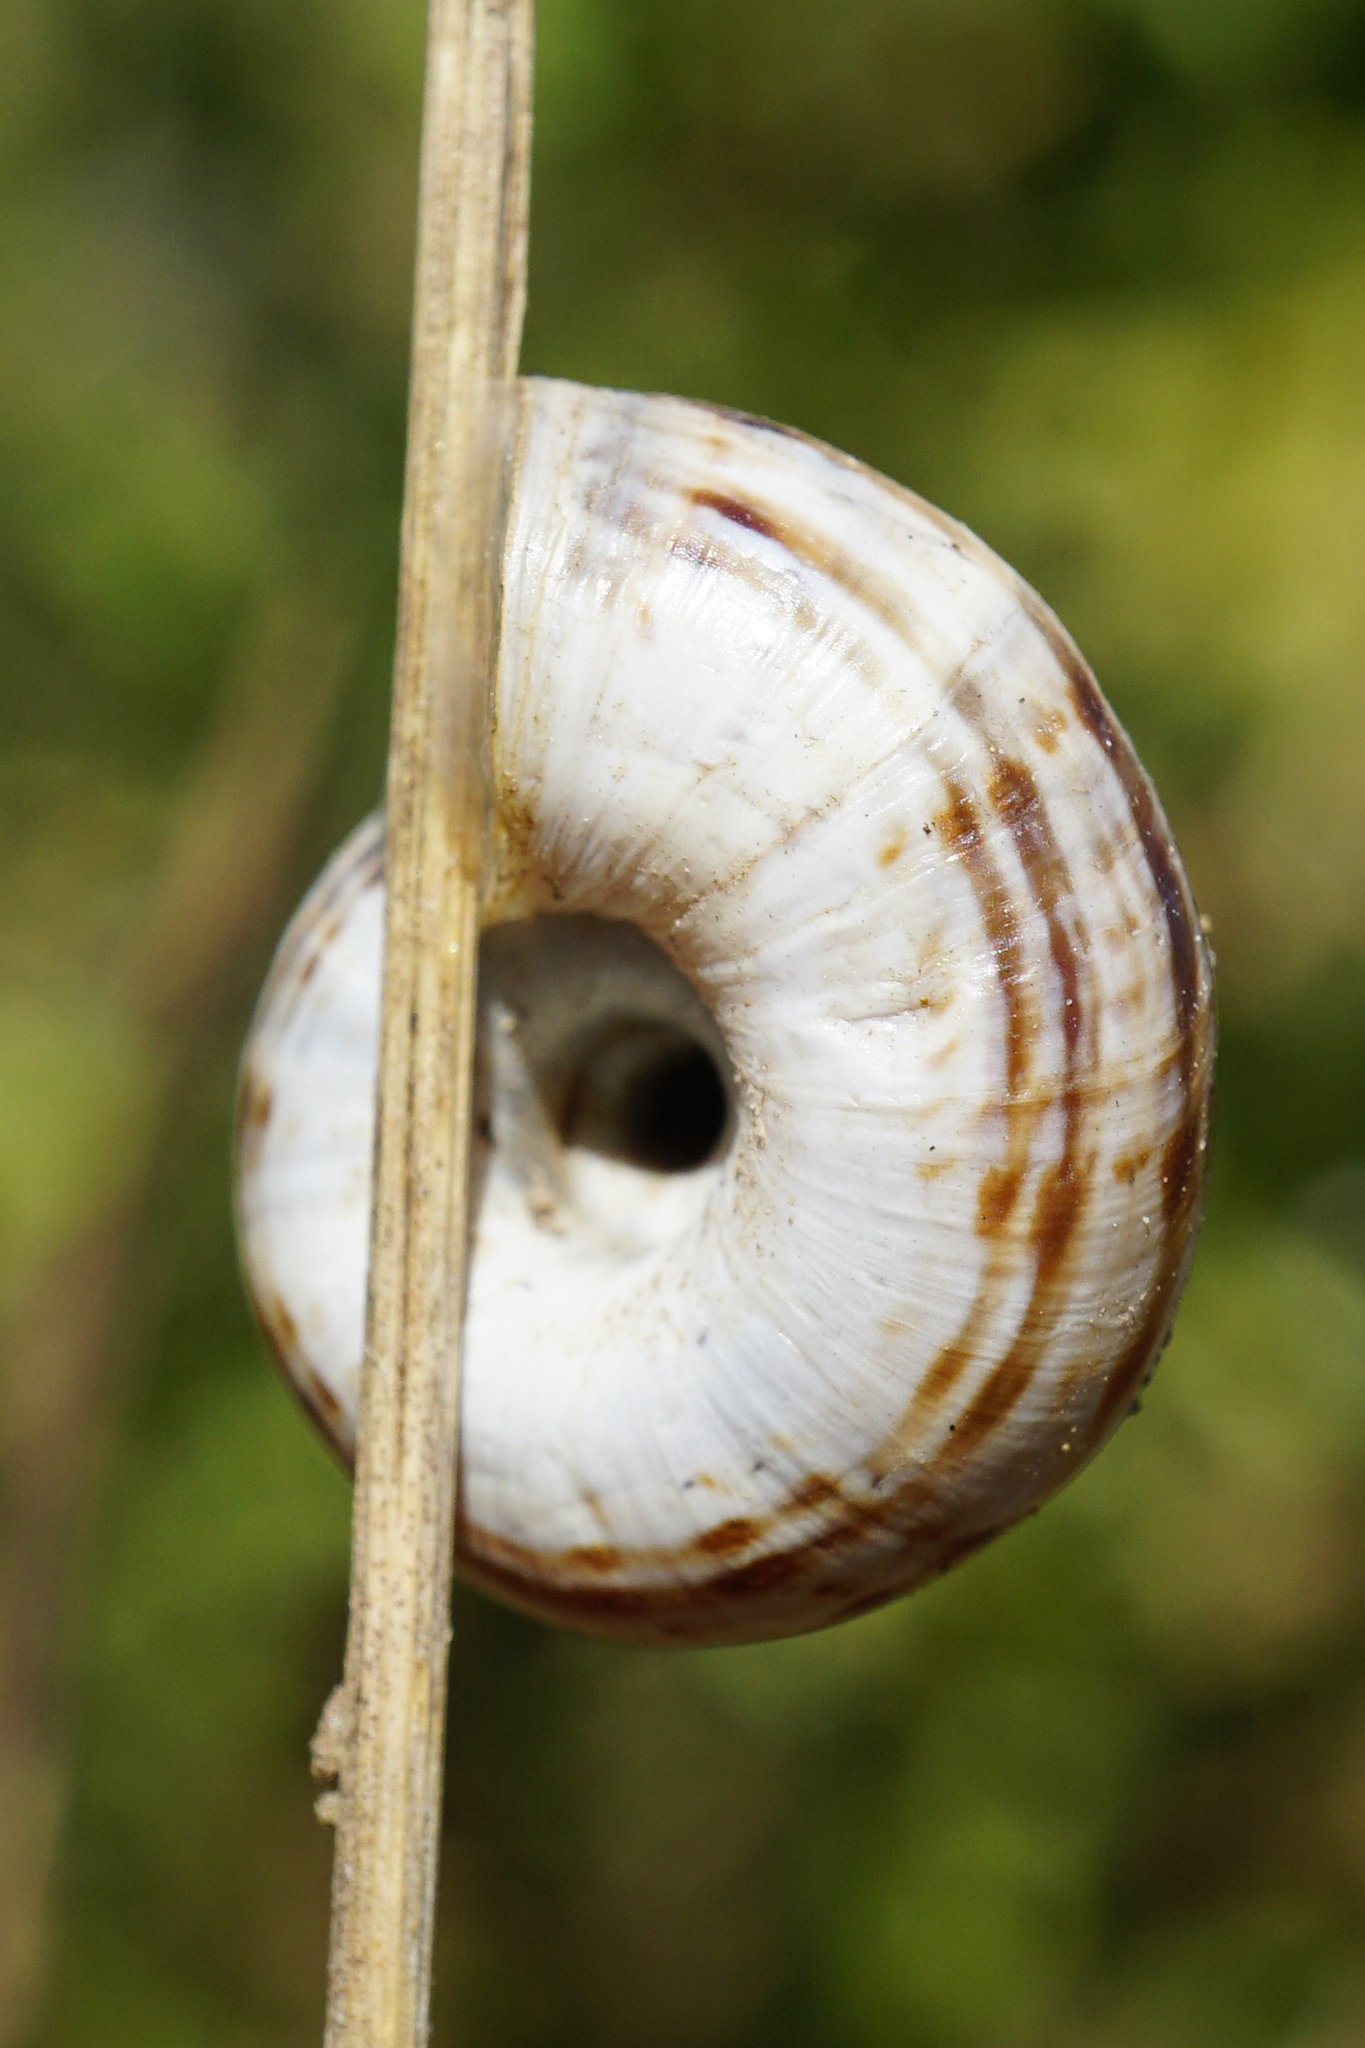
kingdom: Animalia
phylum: Mollusca
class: Gastropoda
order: Stylommatophora
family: Geomitridae
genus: Xerolenta
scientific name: Xerolenta obvia
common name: White heath snail
